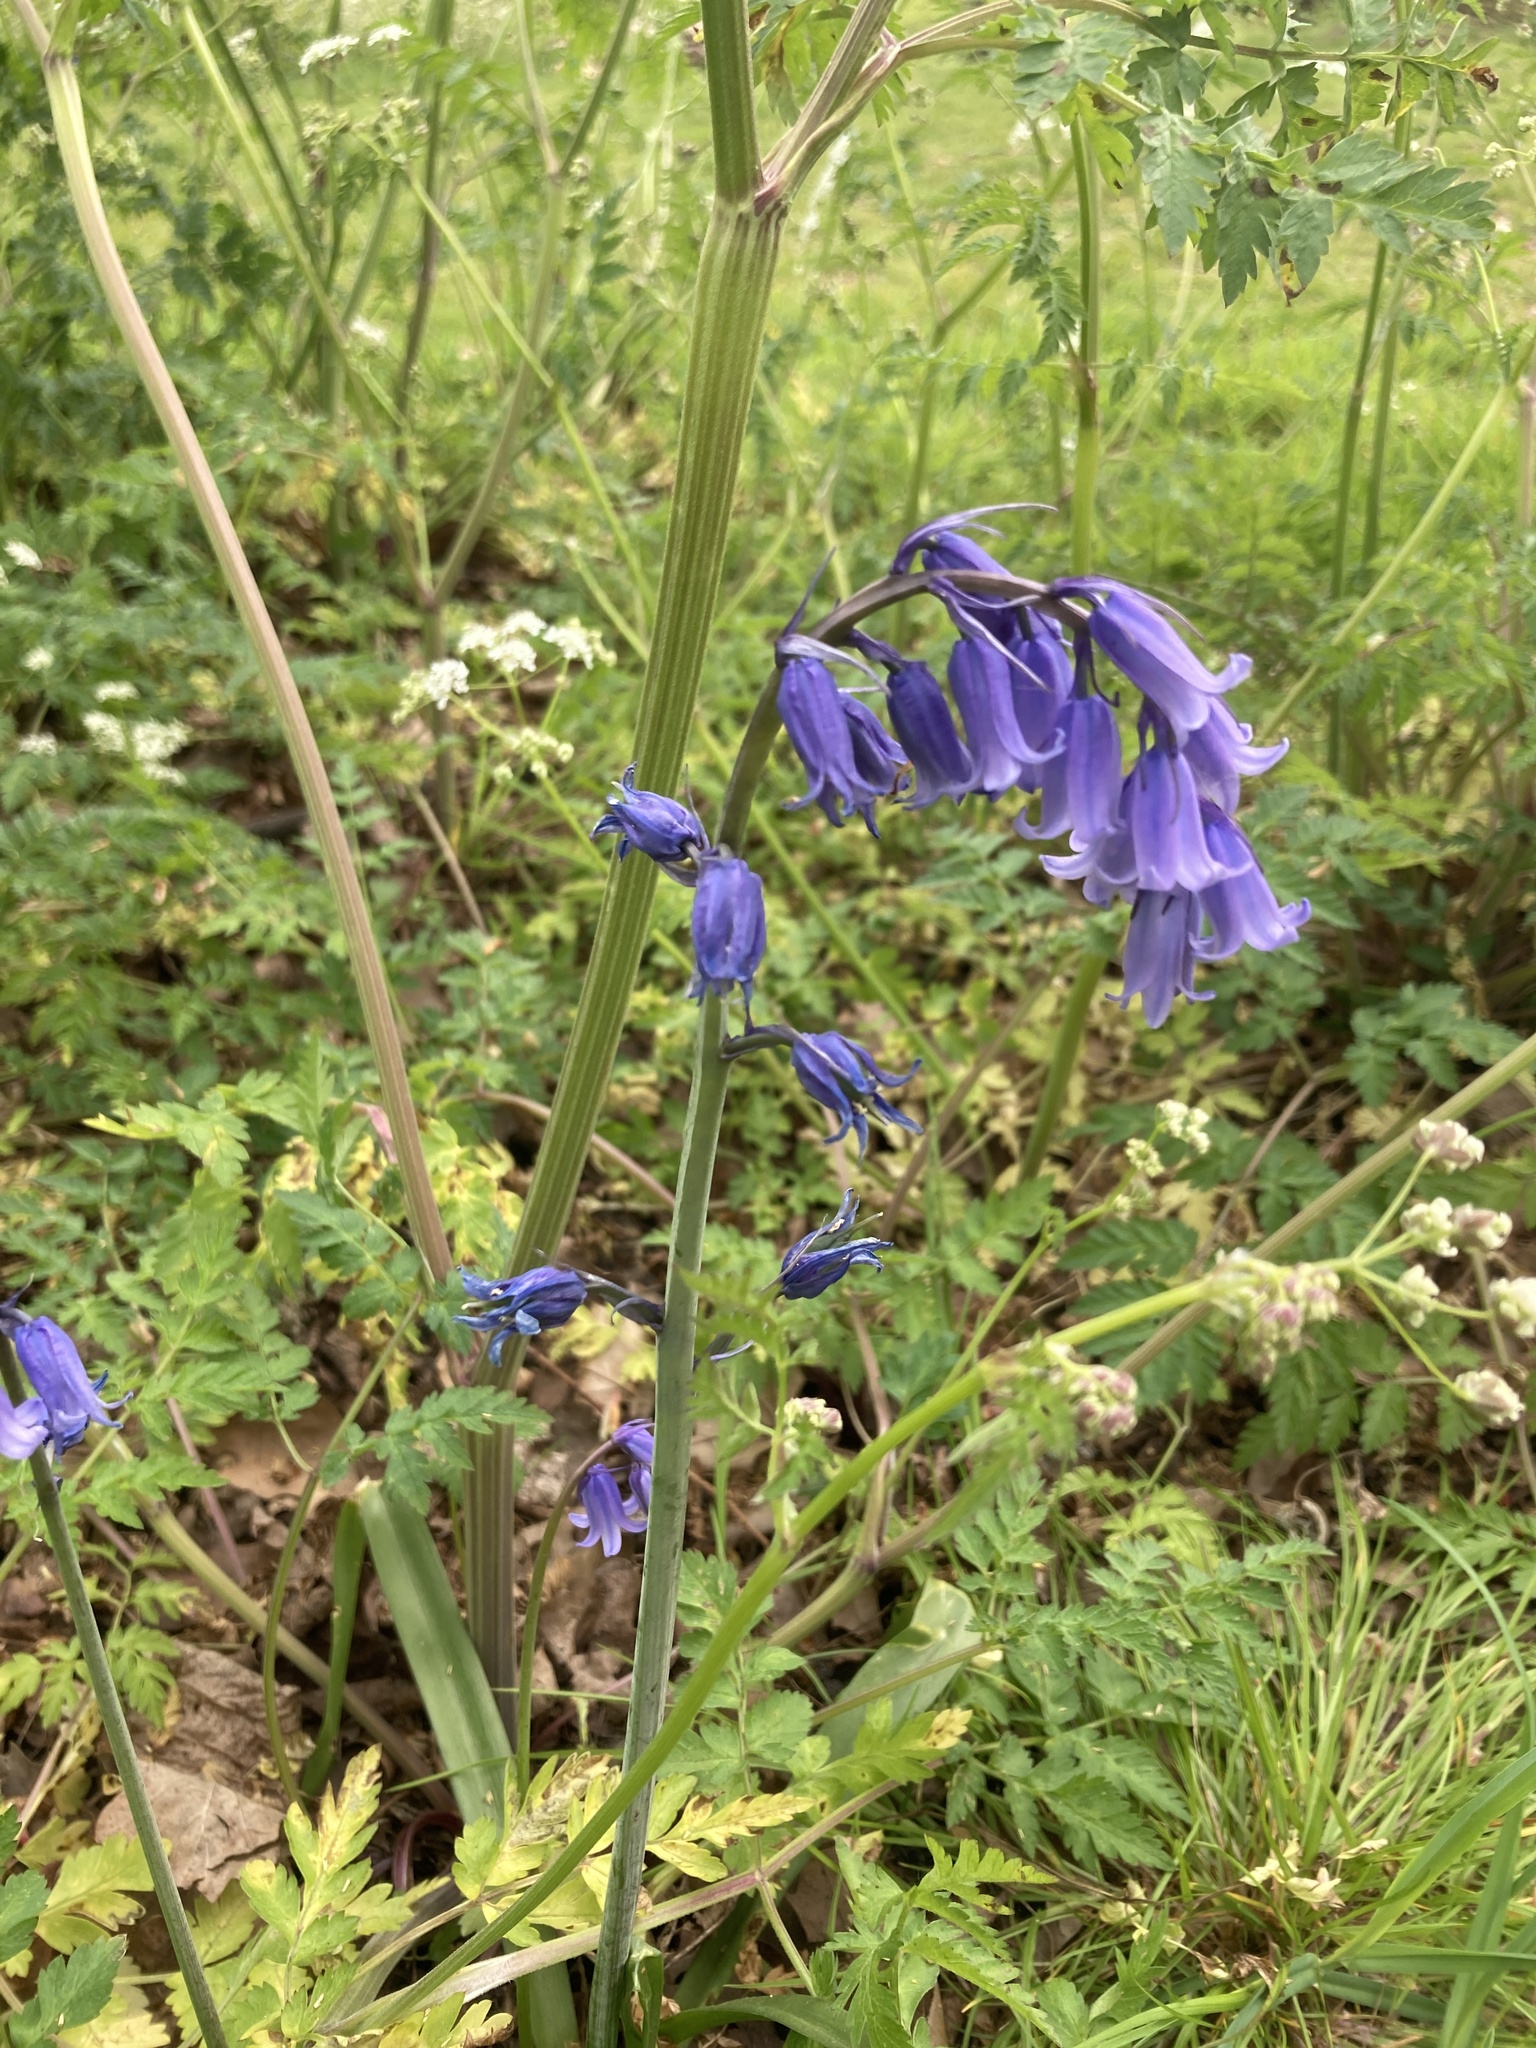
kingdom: Plantae
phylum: Tracheophyta
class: Liliopsida
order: Asparagales
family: Asparagaceae
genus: Hyacinthoides
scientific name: Hyacinthoides massartiana
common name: Hyacinthoides
